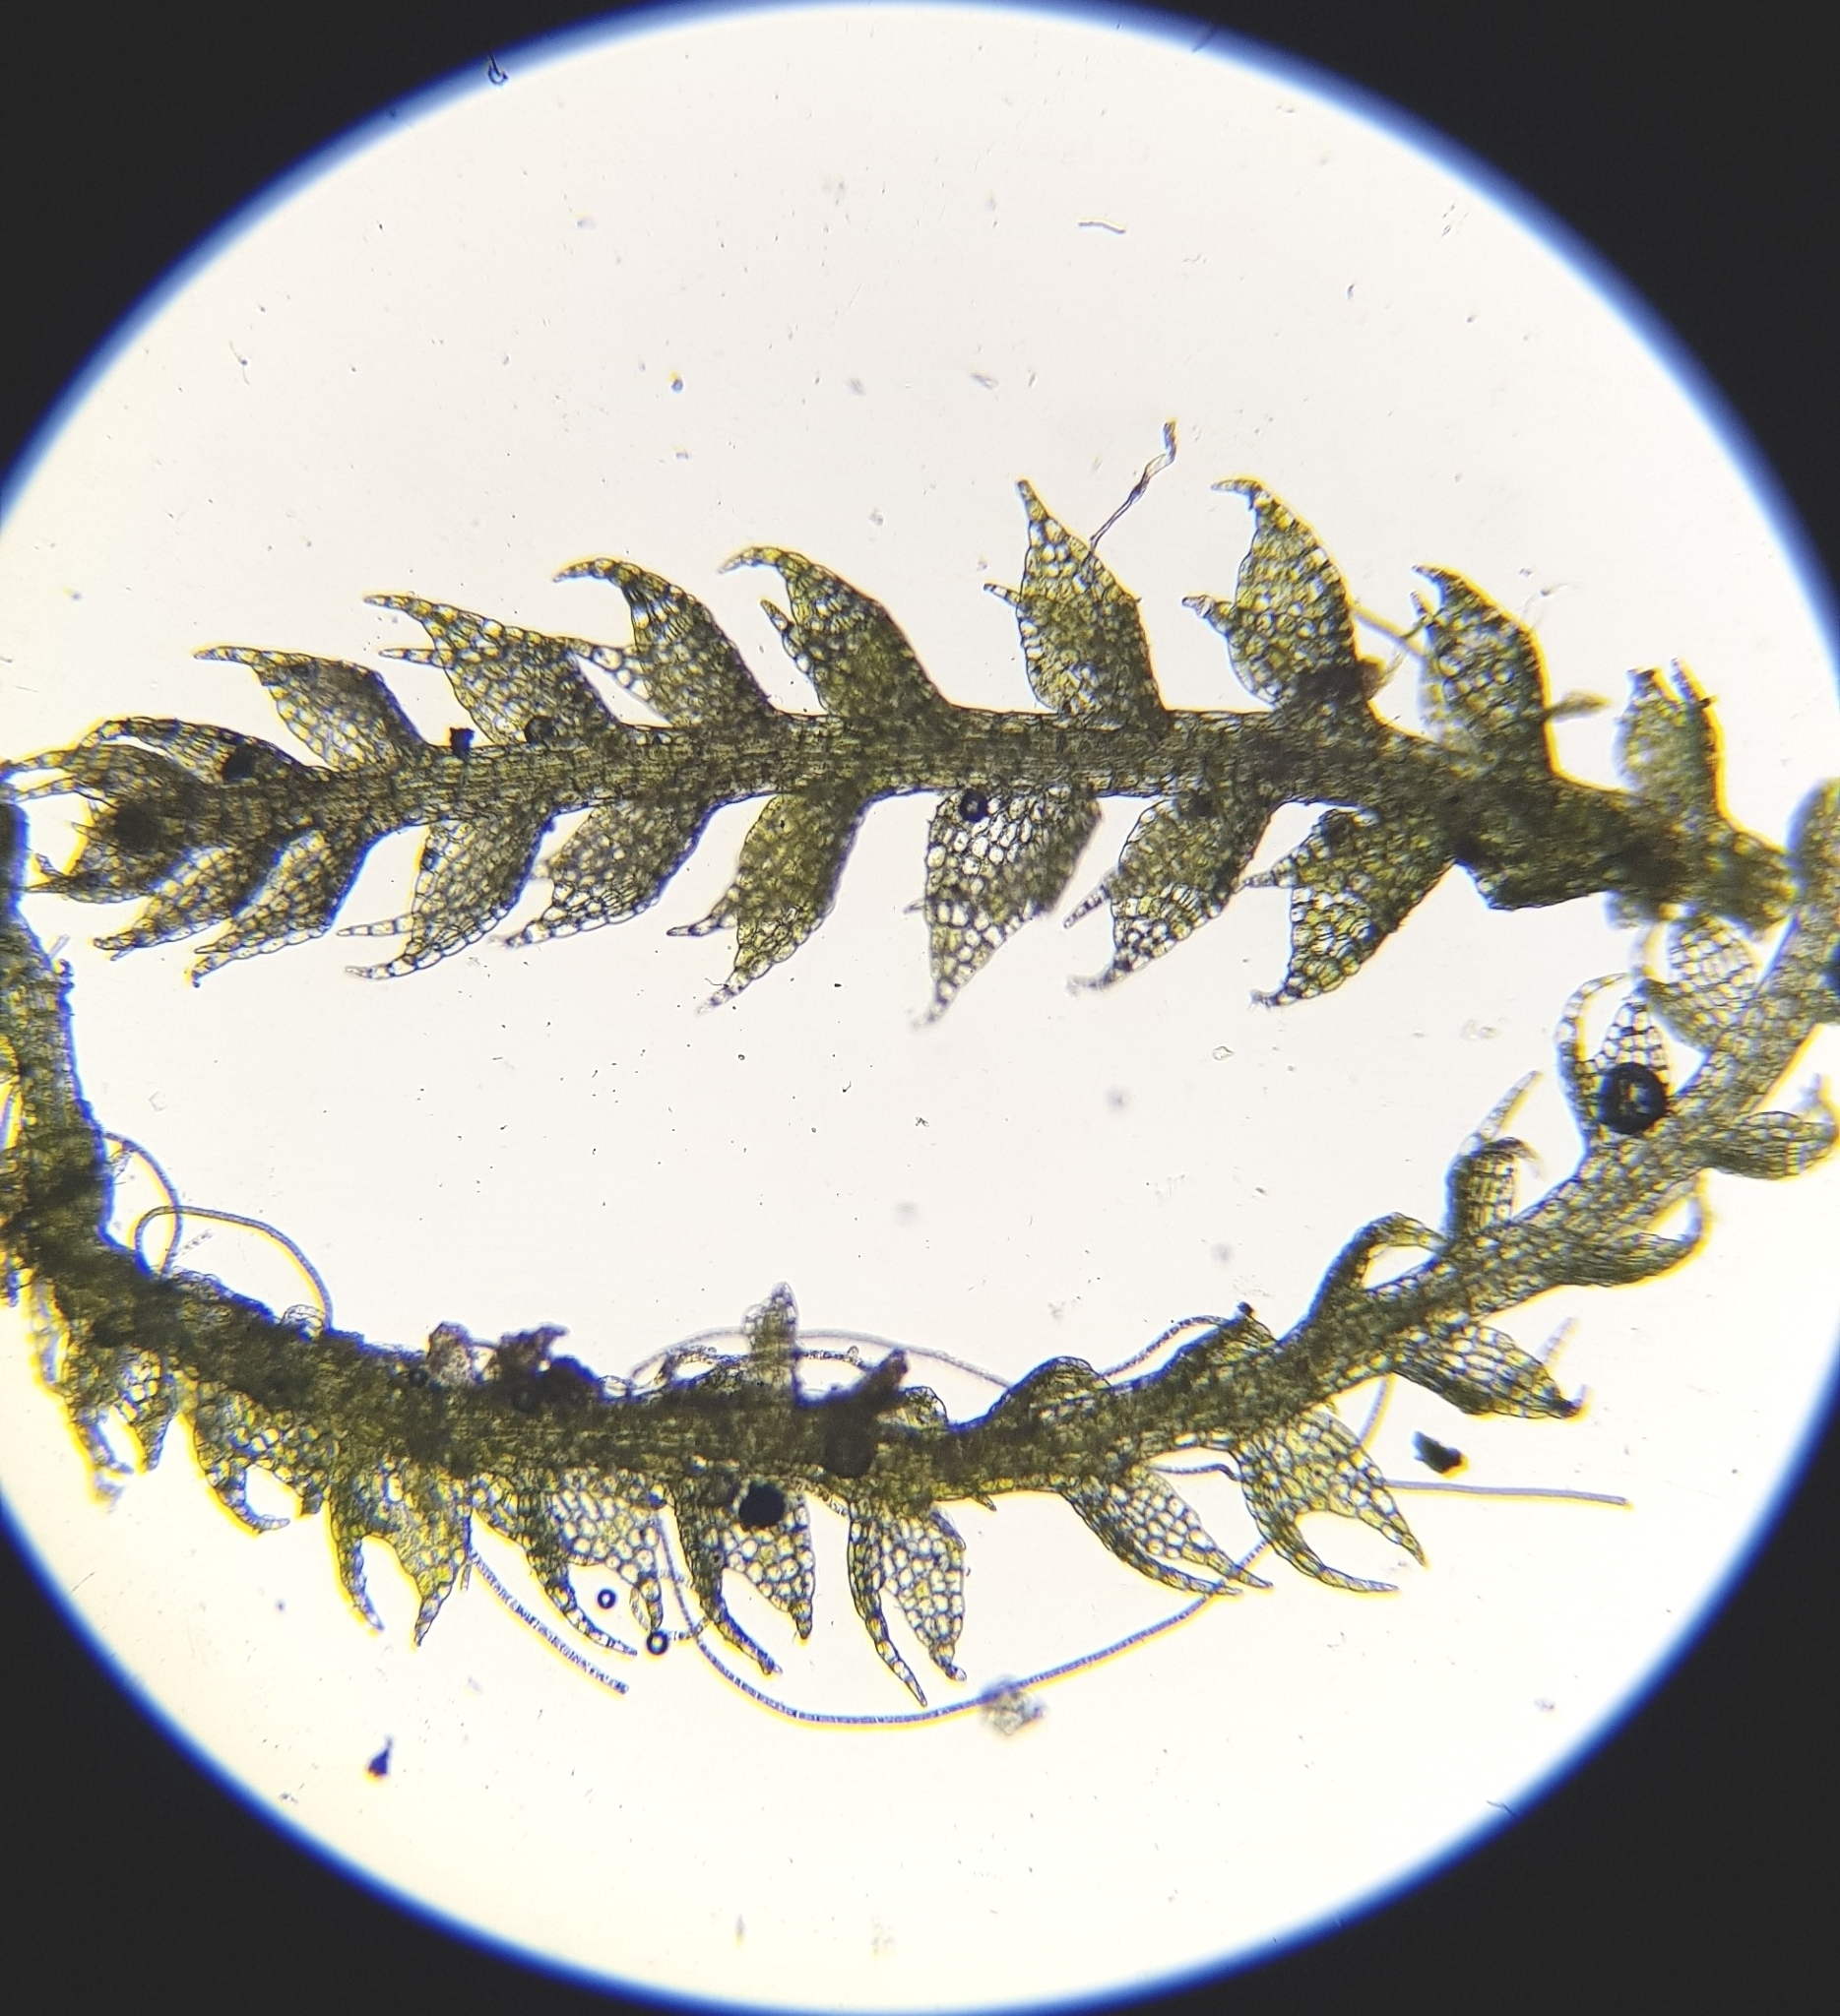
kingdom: Plantae
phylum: Marchantiophyta
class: Jungermanniopsida
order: Jungermanniales
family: Cephaloziaceae
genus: Cephalozia
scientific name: Cephalozia bicuspidata
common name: Two-horned pincerwort
